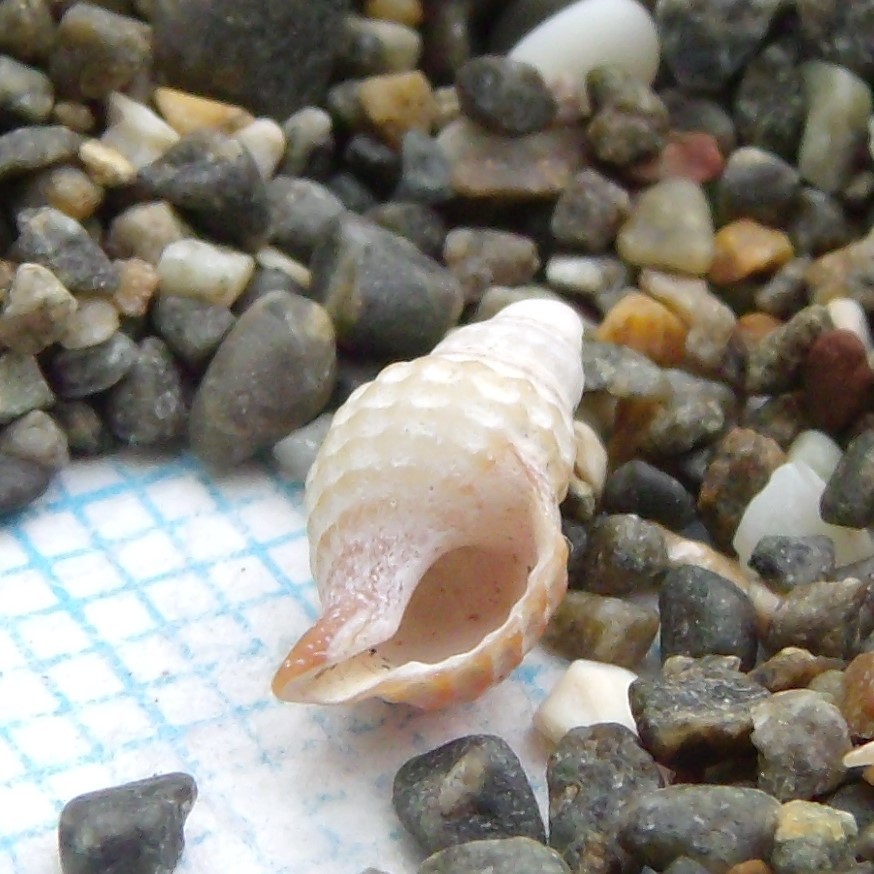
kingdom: Animalia
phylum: Mollusca
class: Gastropoda
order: Neogastropoda
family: Muricidae
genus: Xymene
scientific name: Xymene plebeius
